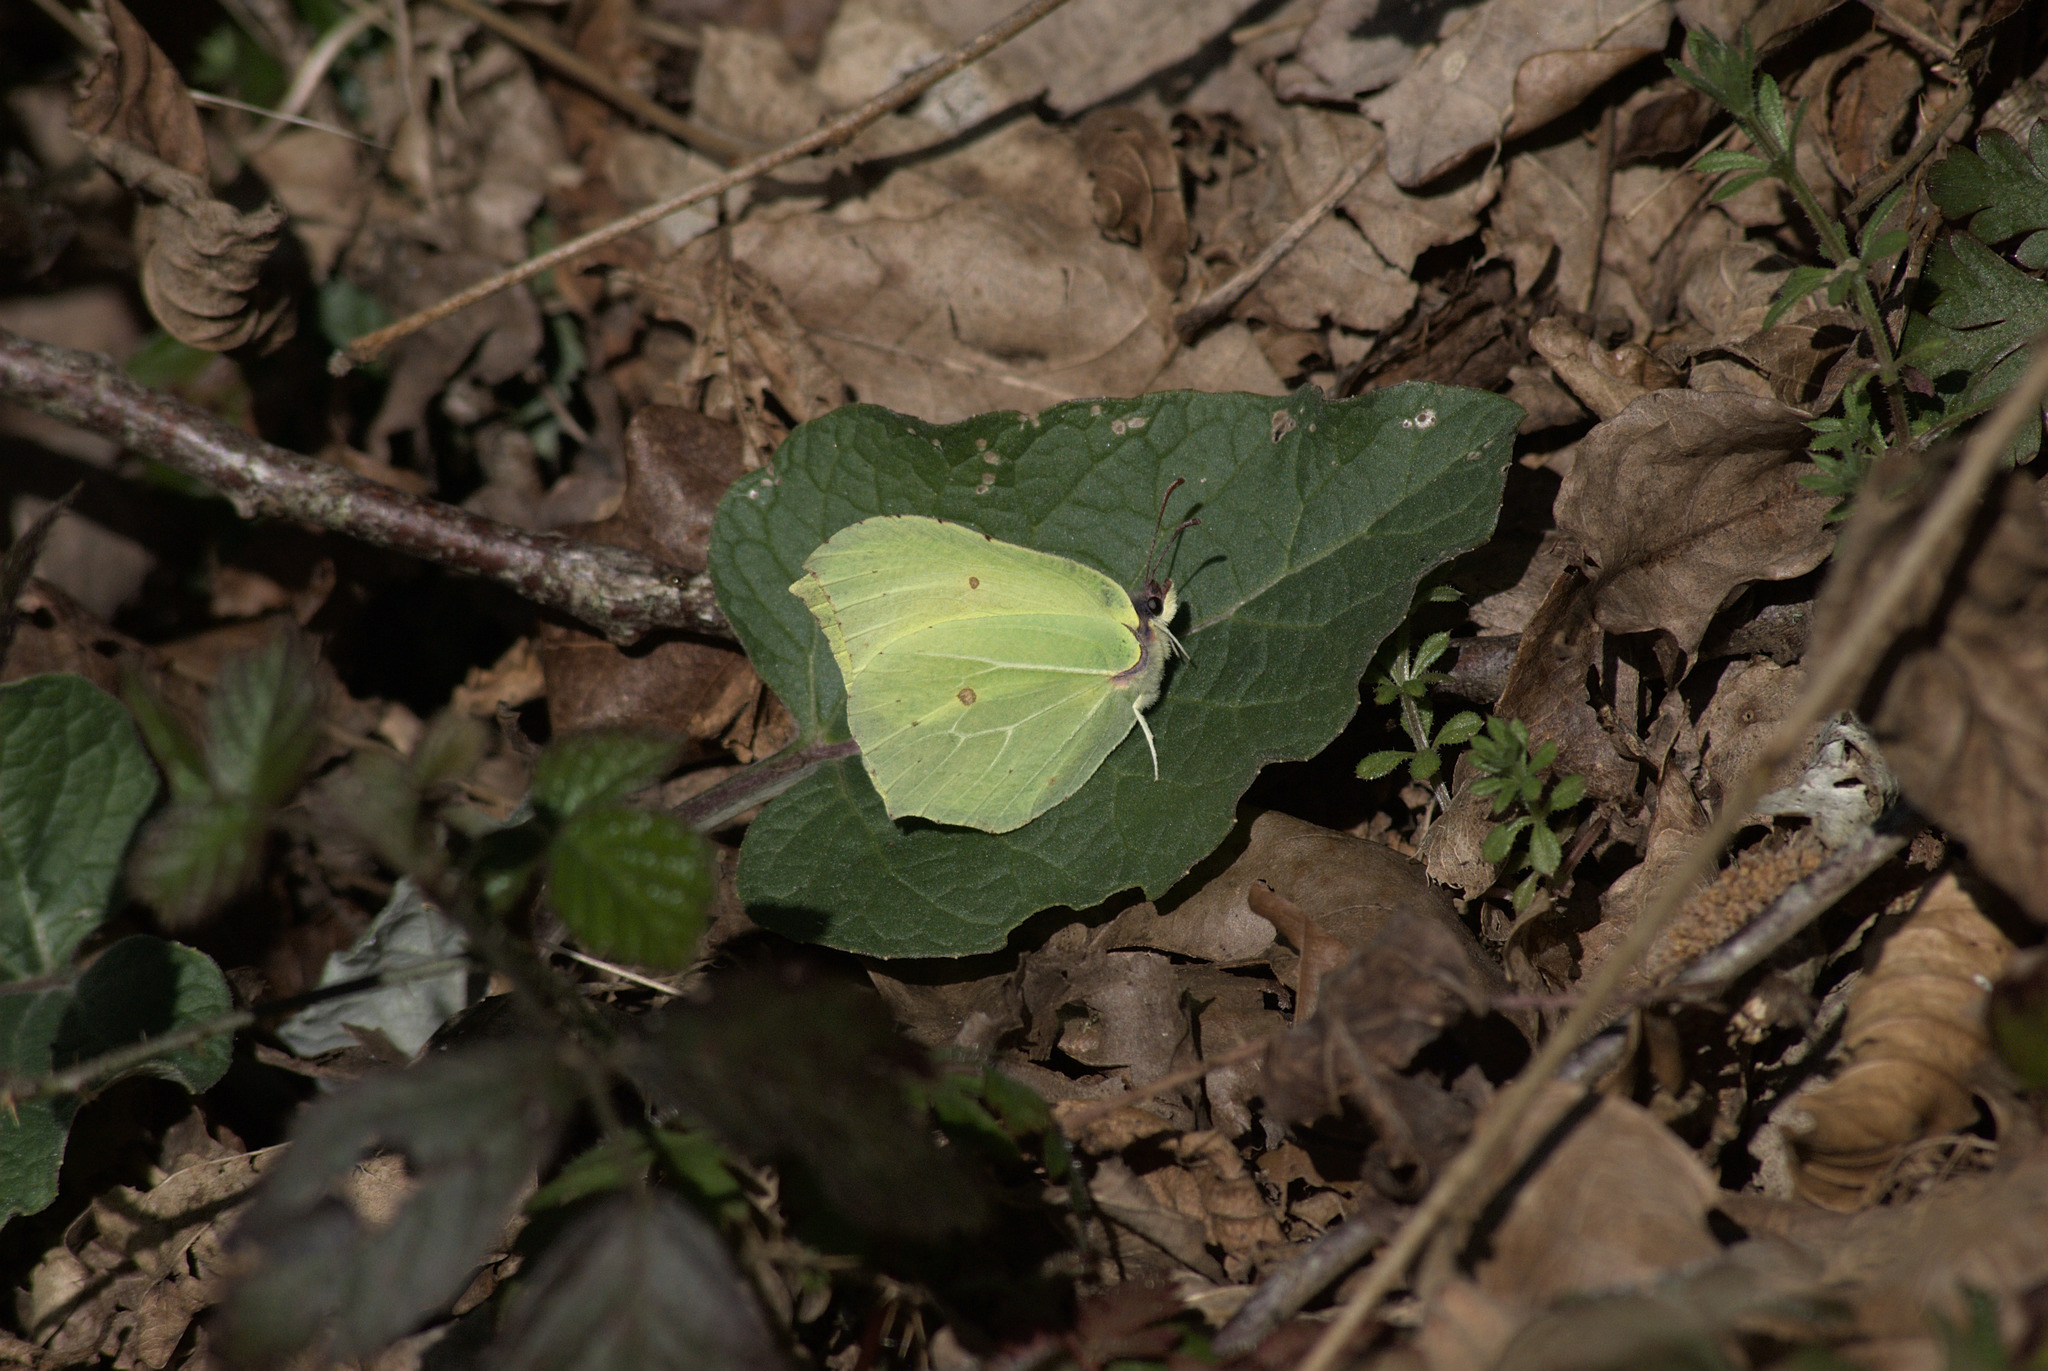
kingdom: Animalia
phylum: Arthropoda
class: Insecta
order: Lepidoptera
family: Pieridae
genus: Gonepteryx
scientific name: Gonepteryx rhamni
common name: Brimstone
